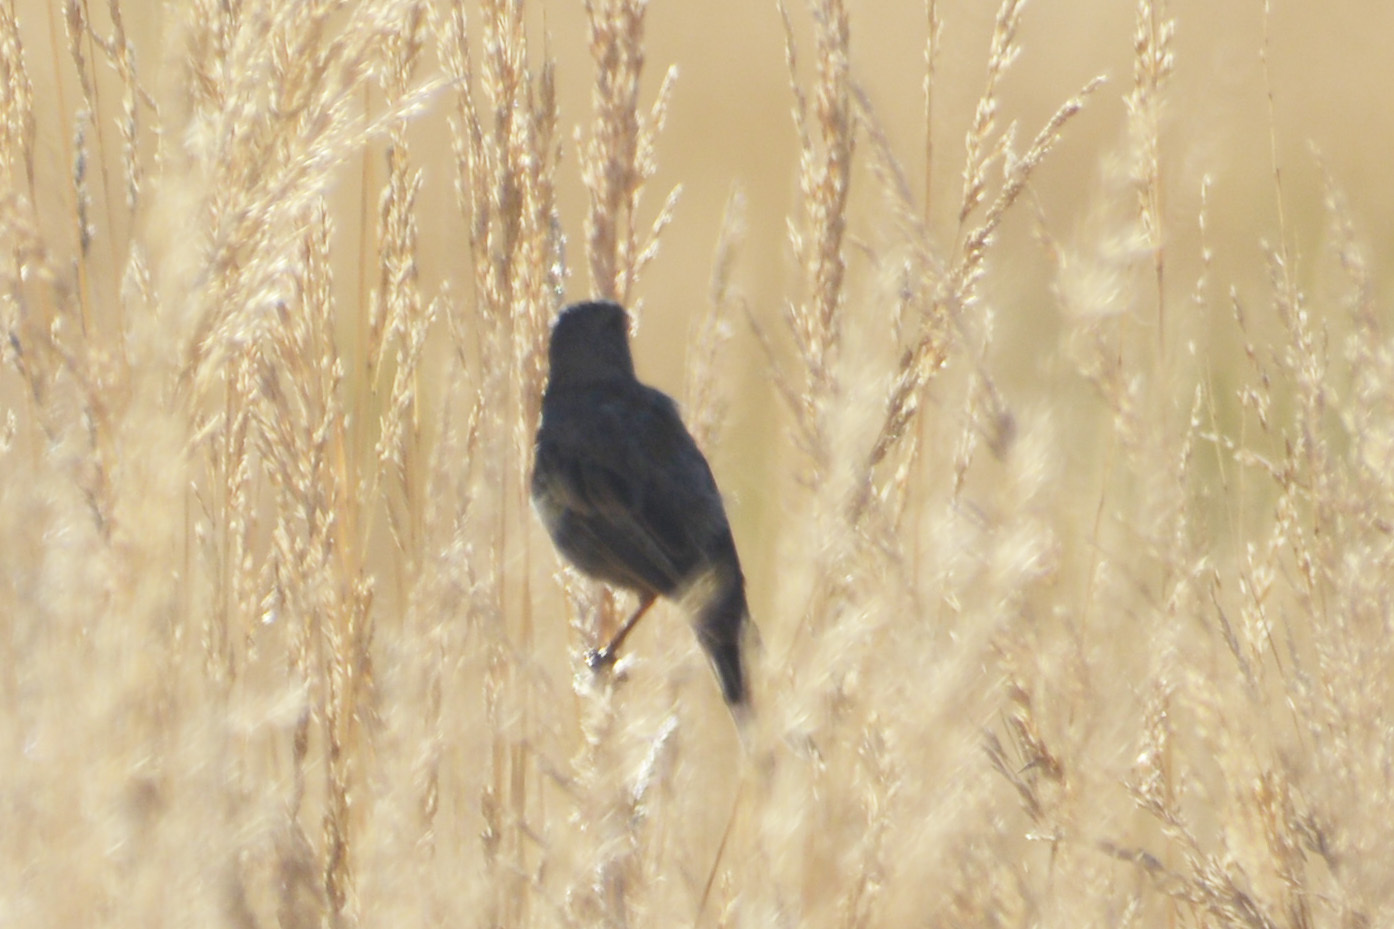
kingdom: Animalia
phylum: Chordata
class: Aves
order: Passeriformes
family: Thraupidae
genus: Catamenia
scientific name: Catamenia inornata
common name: Plain-colored seedeater
